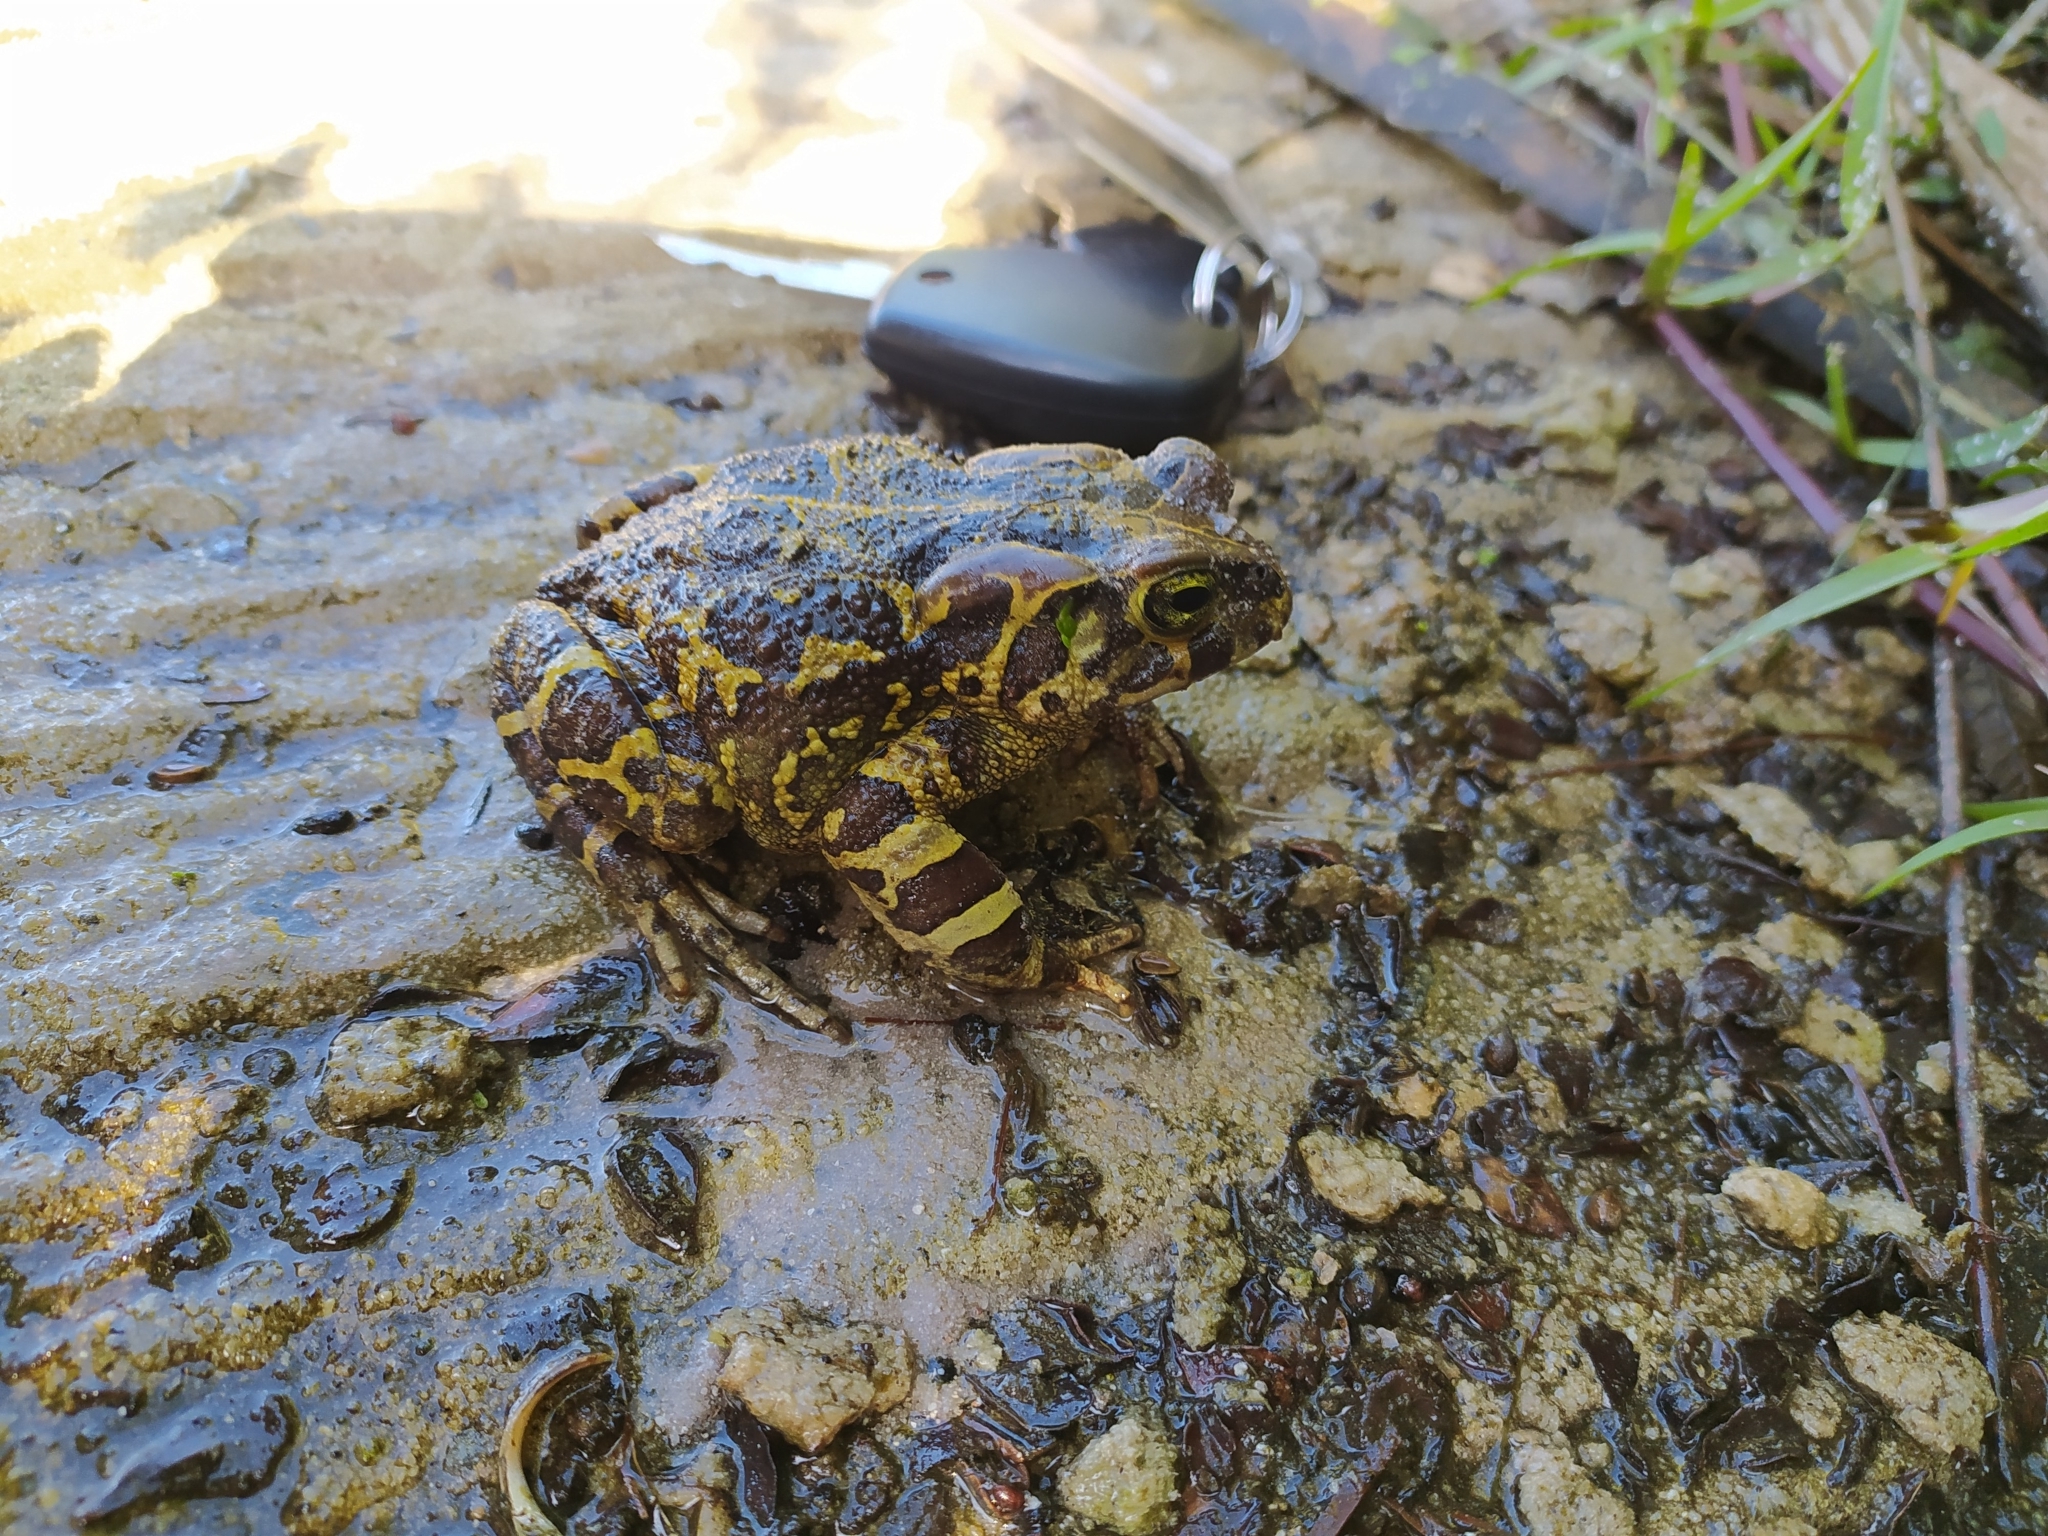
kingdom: Animalia
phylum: Chordata
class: Amphibia
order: Anura
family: Bufonidae
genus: Sclerophrys
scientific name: Sclerophrys pantherina
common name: Panther toad
